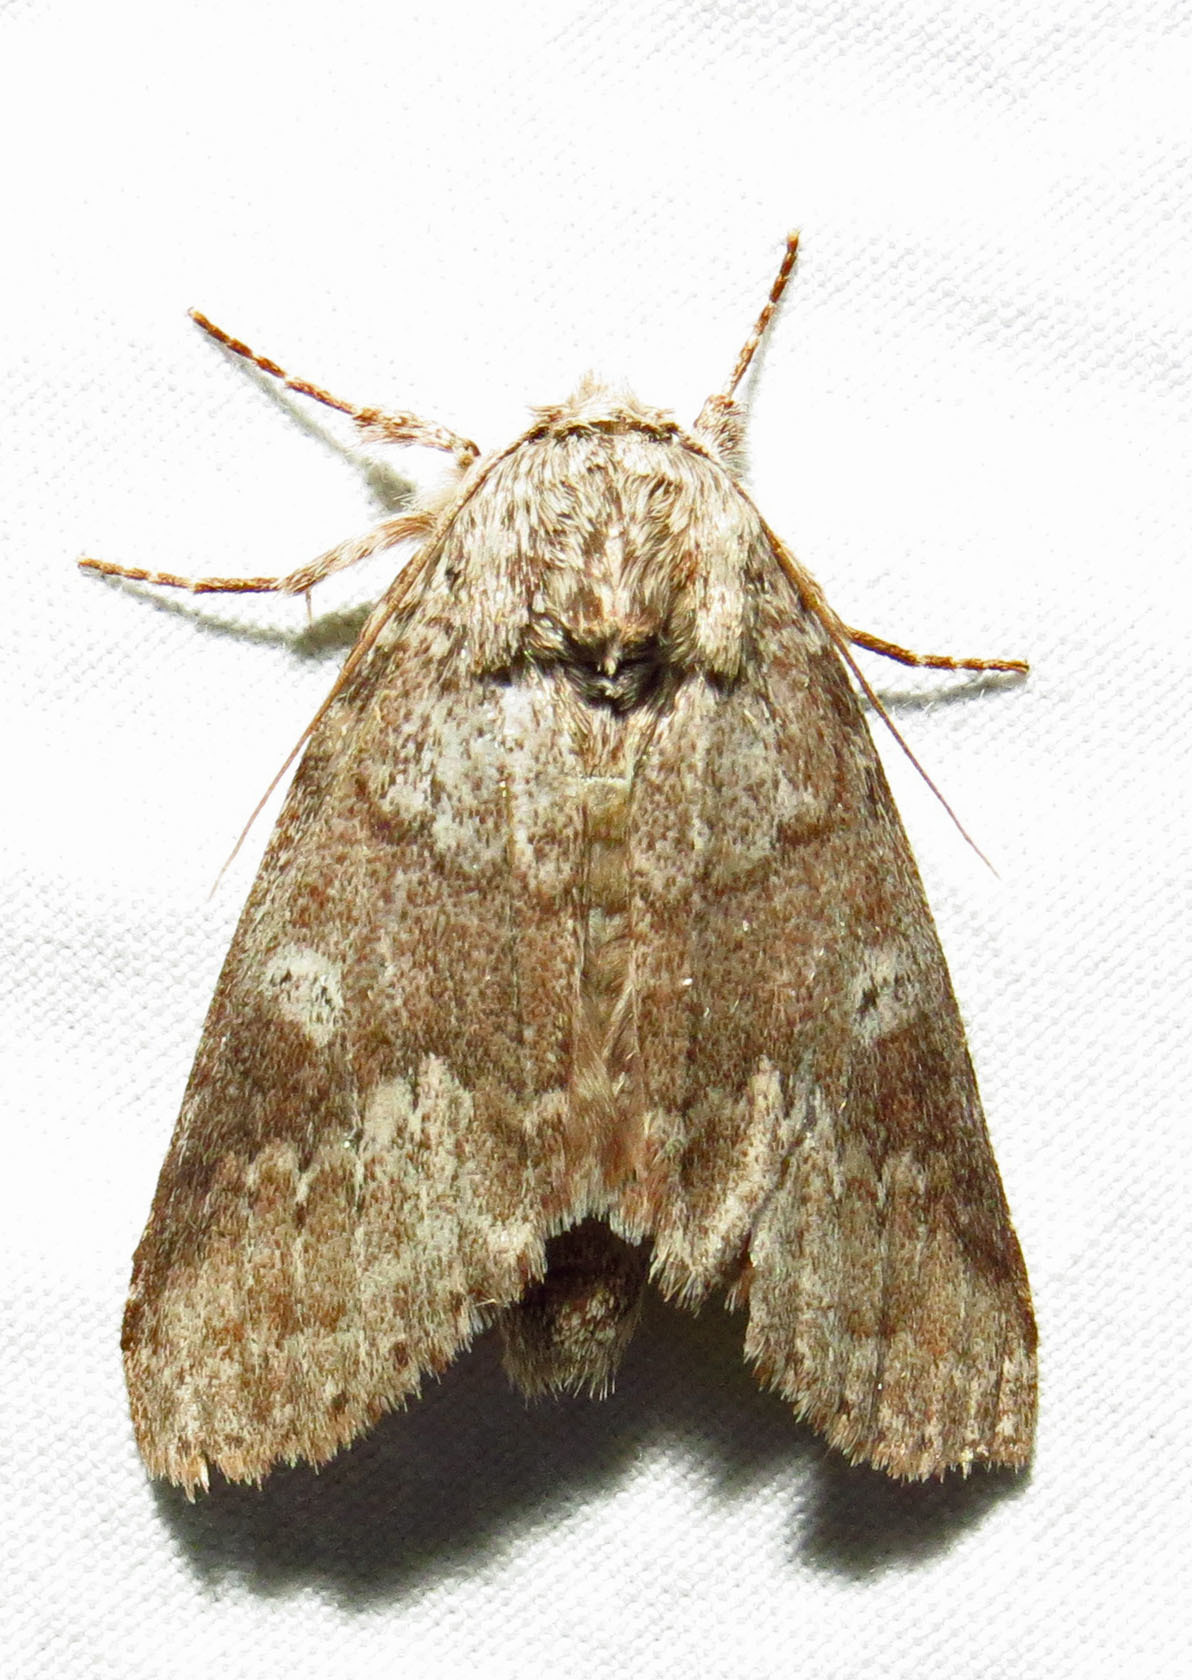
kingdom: Animalia
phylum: Arthropoda
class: Insecta
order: Lepidoptera
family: Notodontidae
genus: Lochmaeus
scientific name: Lochmaeus manteo
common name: Variable oakleaf caterpillar moth
